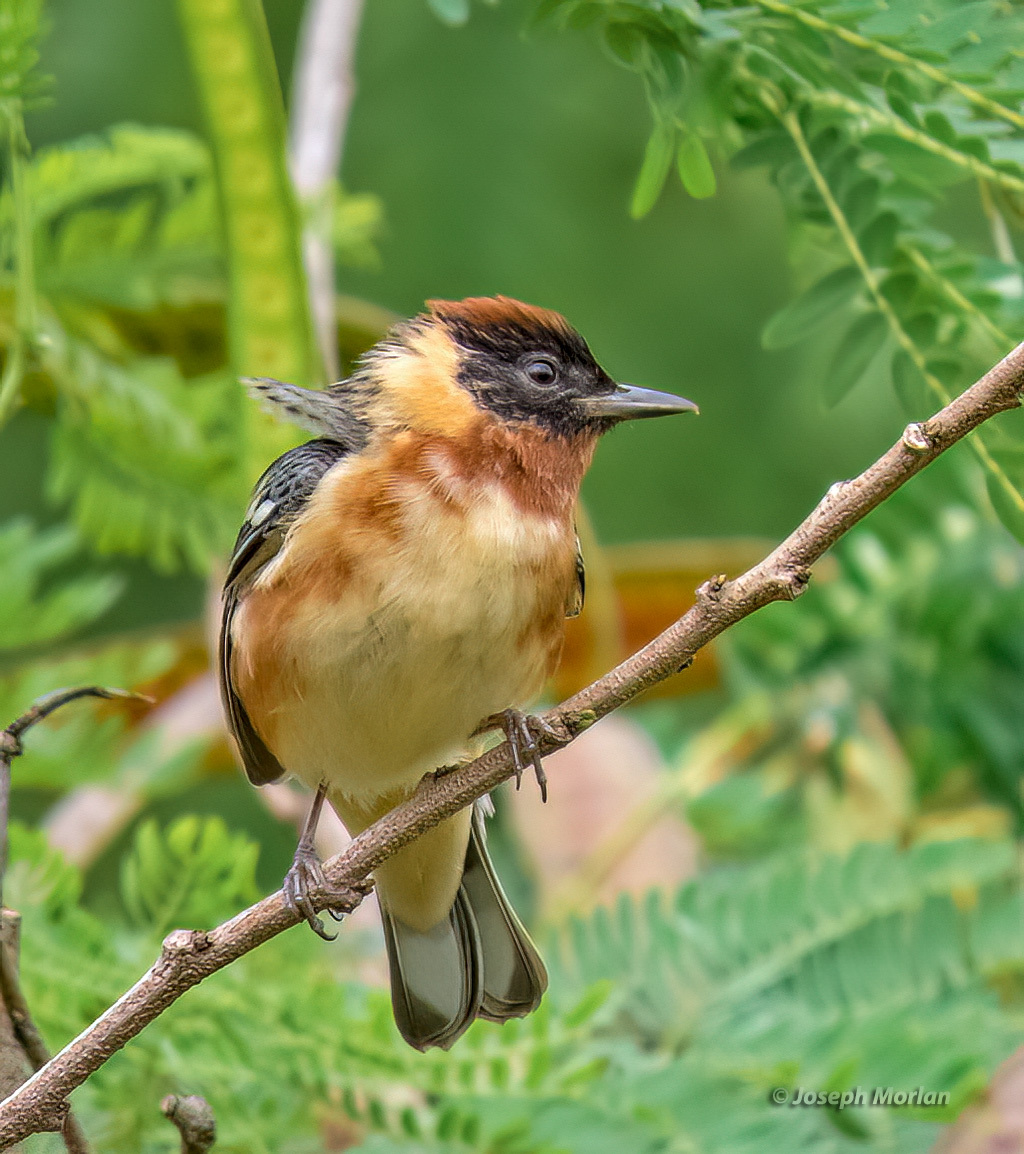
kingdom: Animalia
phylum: Chordata
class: Aves
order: Passeriformes
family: Parulidae
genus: Setophaga
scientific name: Setophaga castanea
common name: Bay-breasted warbler
